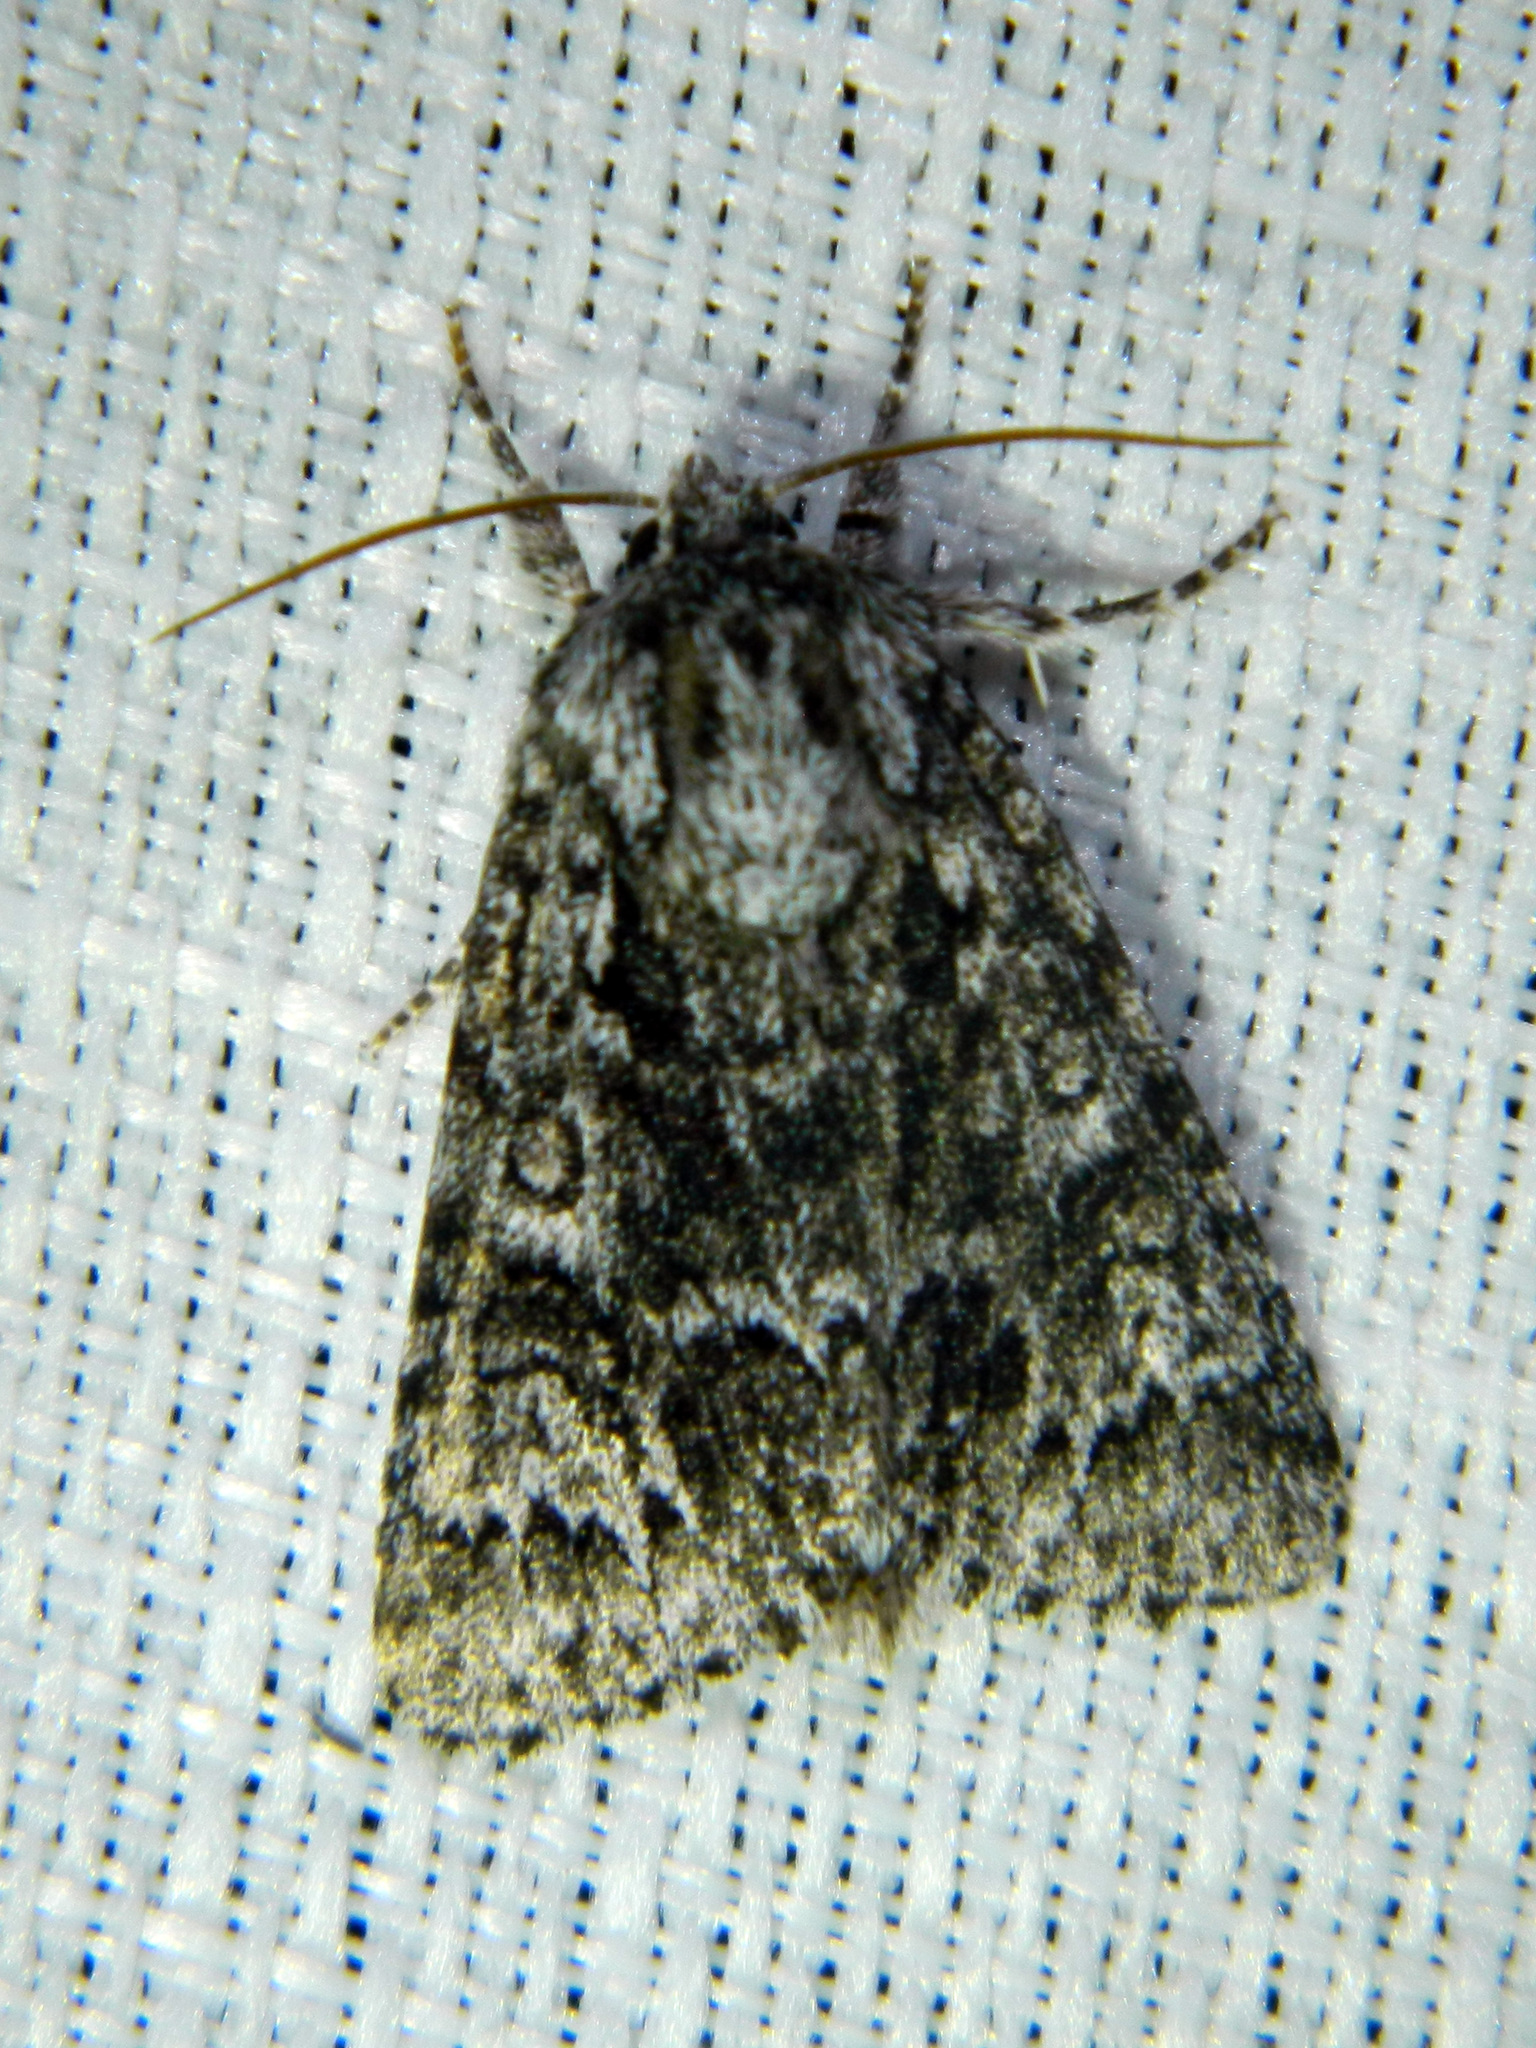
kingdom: Animalia
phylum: Arthropoda
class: Insecta
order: Lepidoptera
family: Noctuidae
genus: Acronicta
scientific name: Acronicta impressa
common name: Impressed dagger
